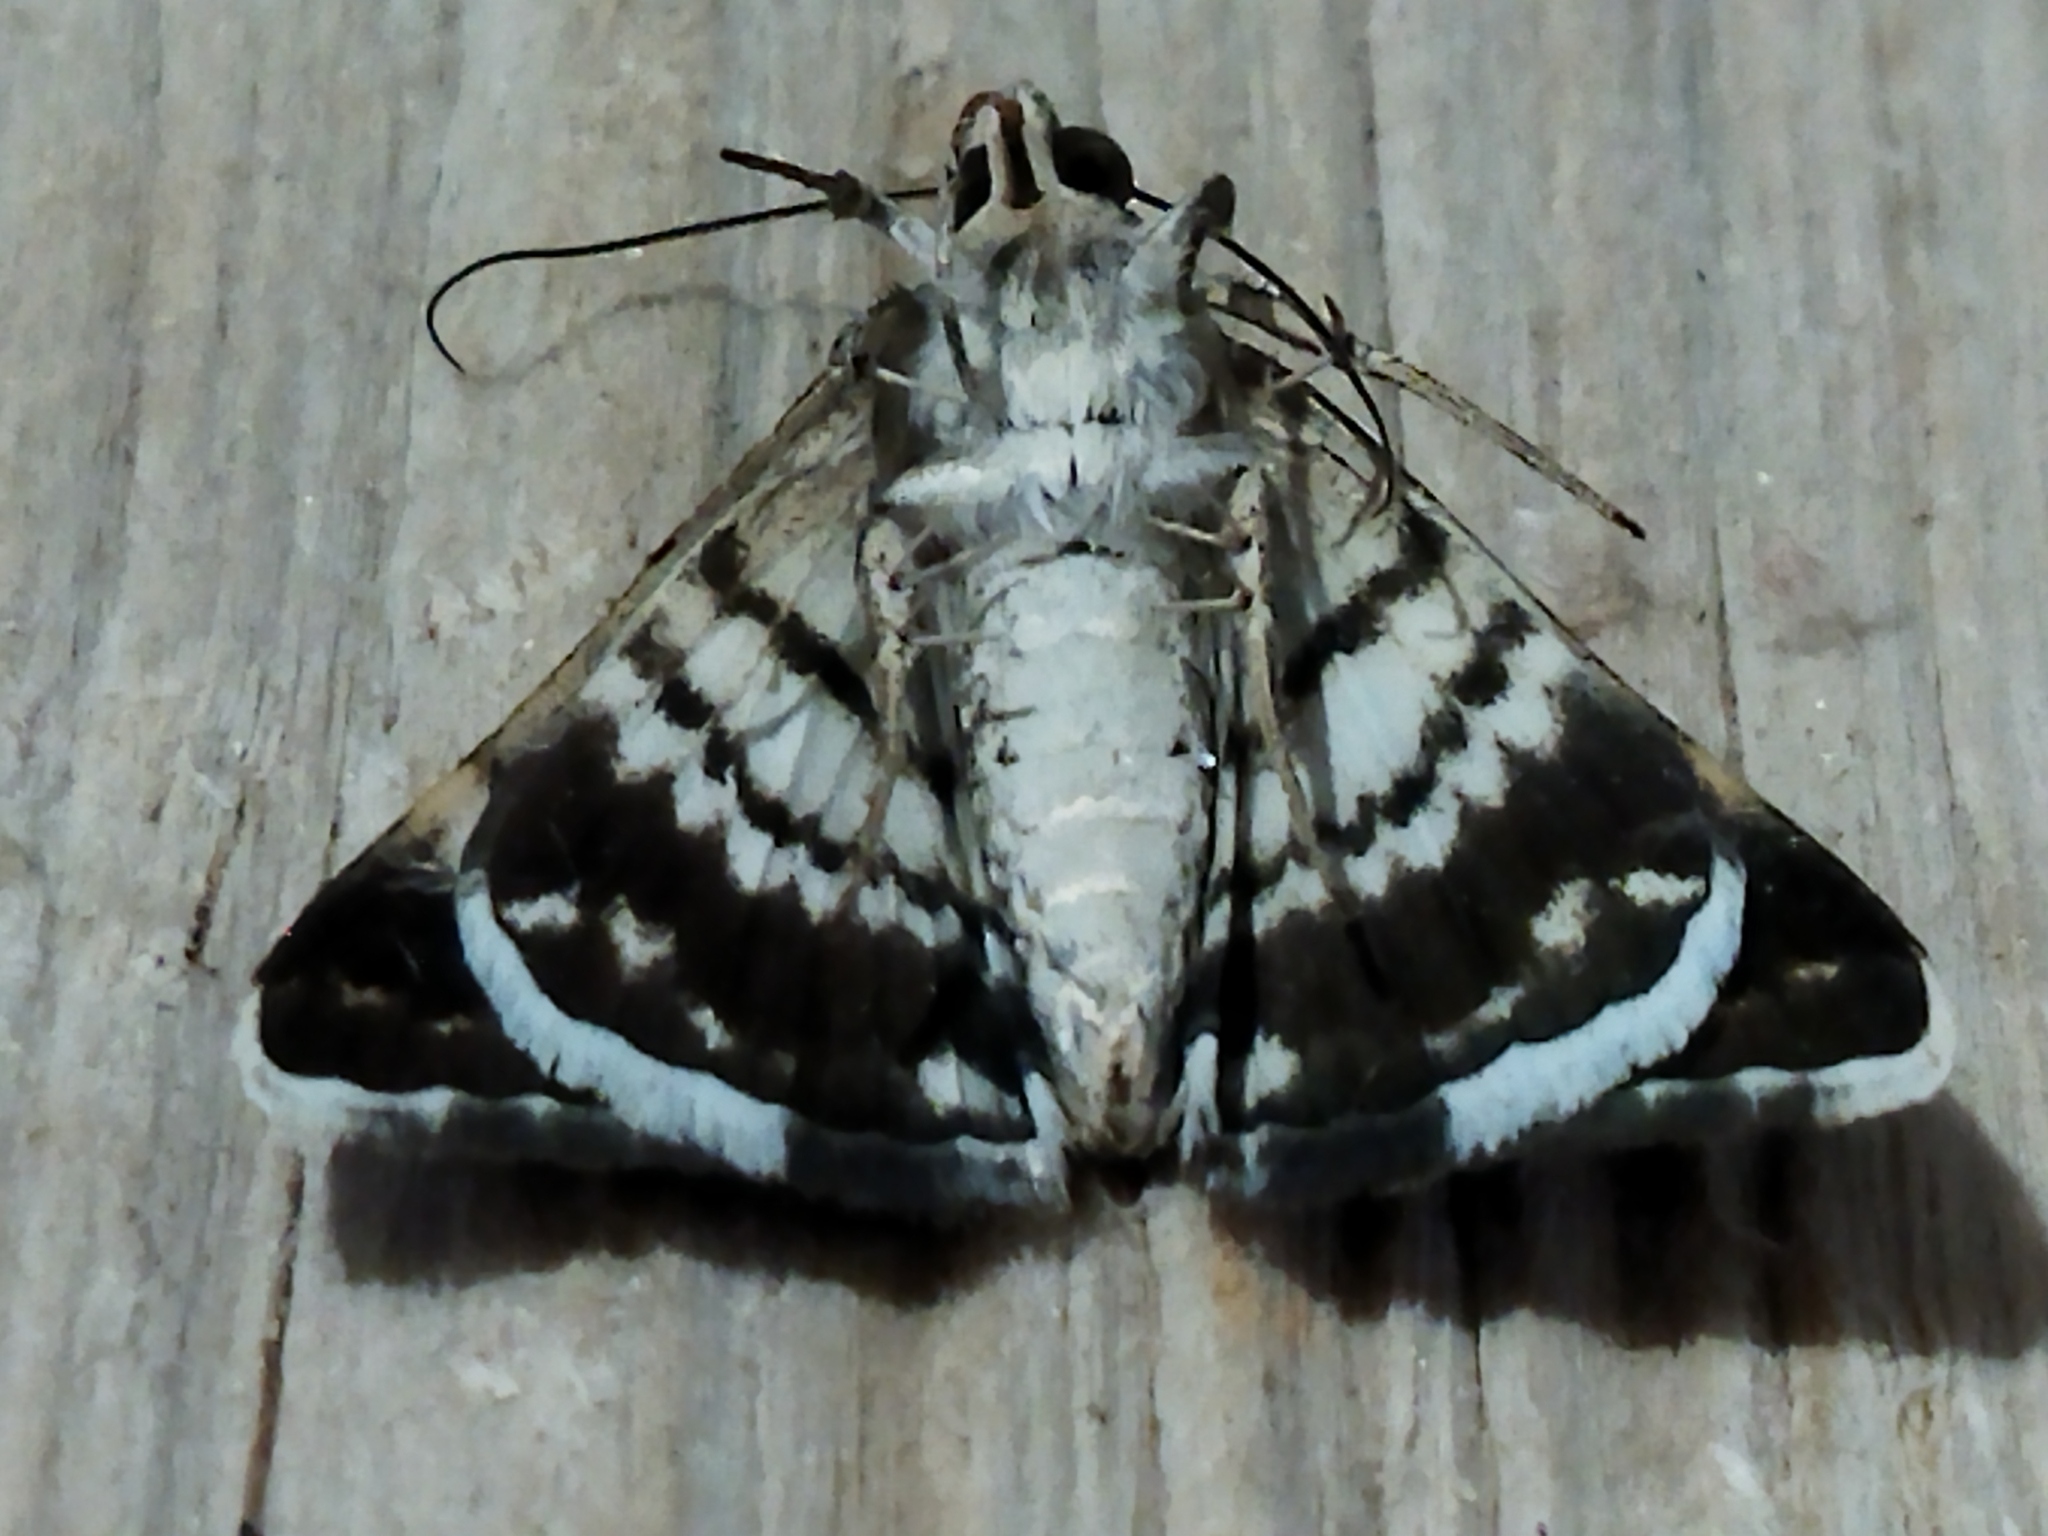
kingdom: Animalia
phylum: Arthropoda
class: Insecta
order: Lepidoptera
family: Erebidae
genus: Grammodes
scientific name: Grammodes stolida
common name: Geometrician
